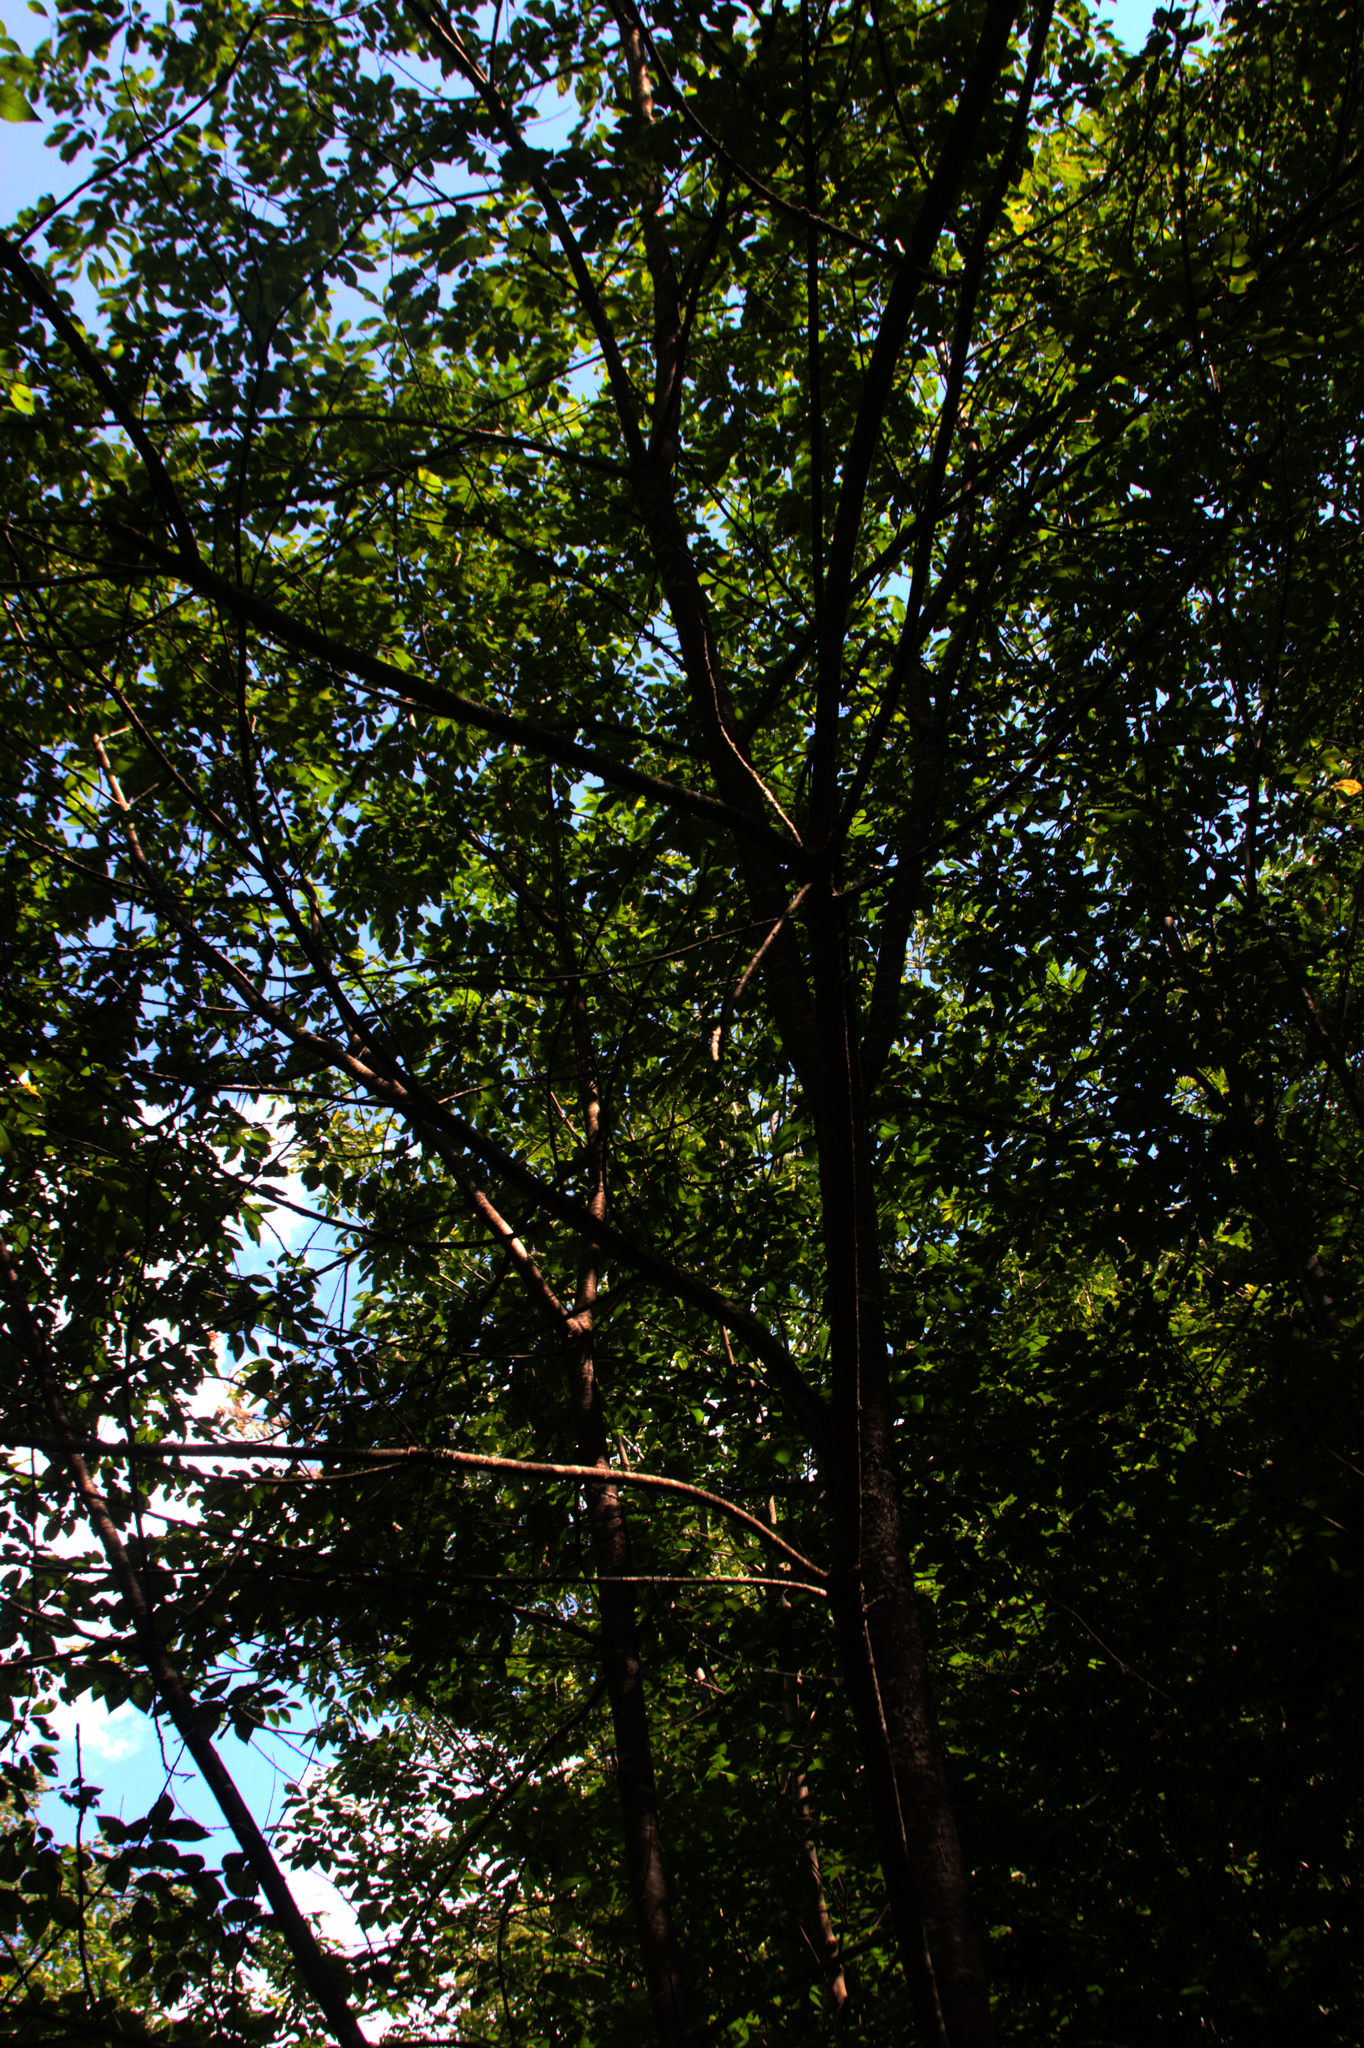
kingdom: Plantae
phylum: Tracheophyta
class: Magnoliopsida
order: Rosales
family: Rosaceae
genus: Prunus
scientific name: Prunus serotina
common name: Black cherry
